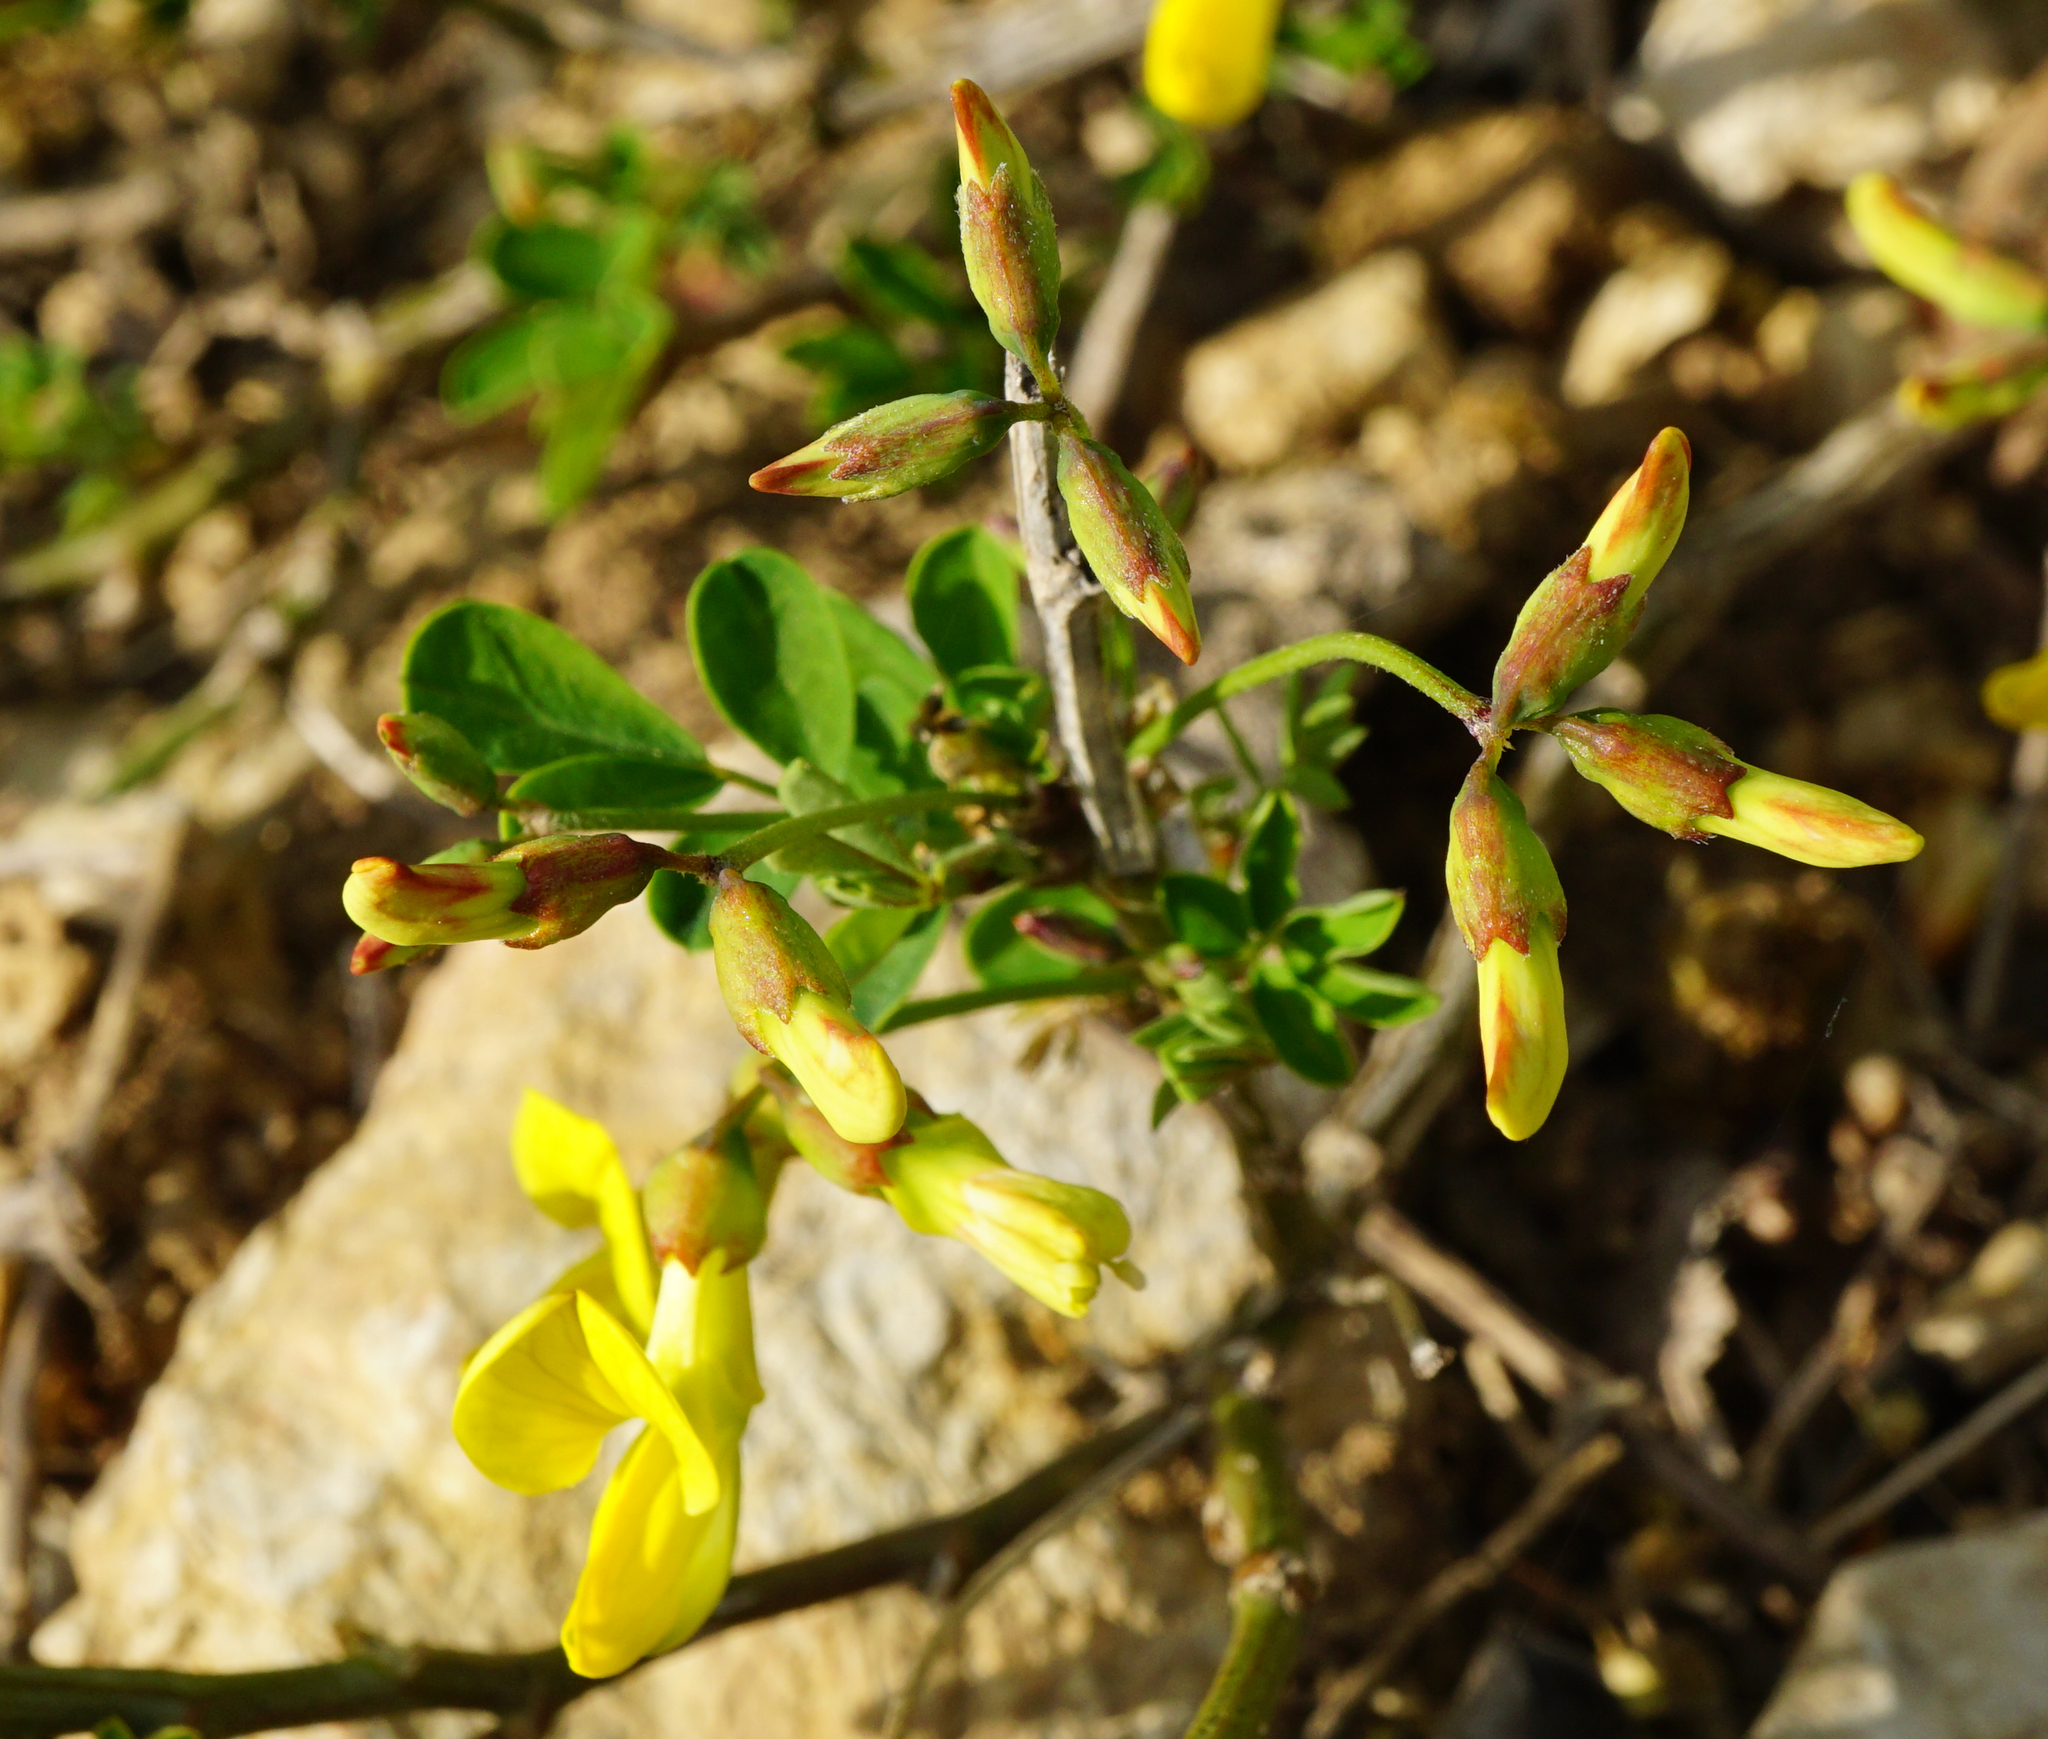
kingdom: Plantae
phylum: Tracheophyta
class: Magnoliopsida
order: Fabales
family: Fabaceae
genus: Hippocrepis
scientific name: Hippocrepis emerus
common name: Scorpion senna
